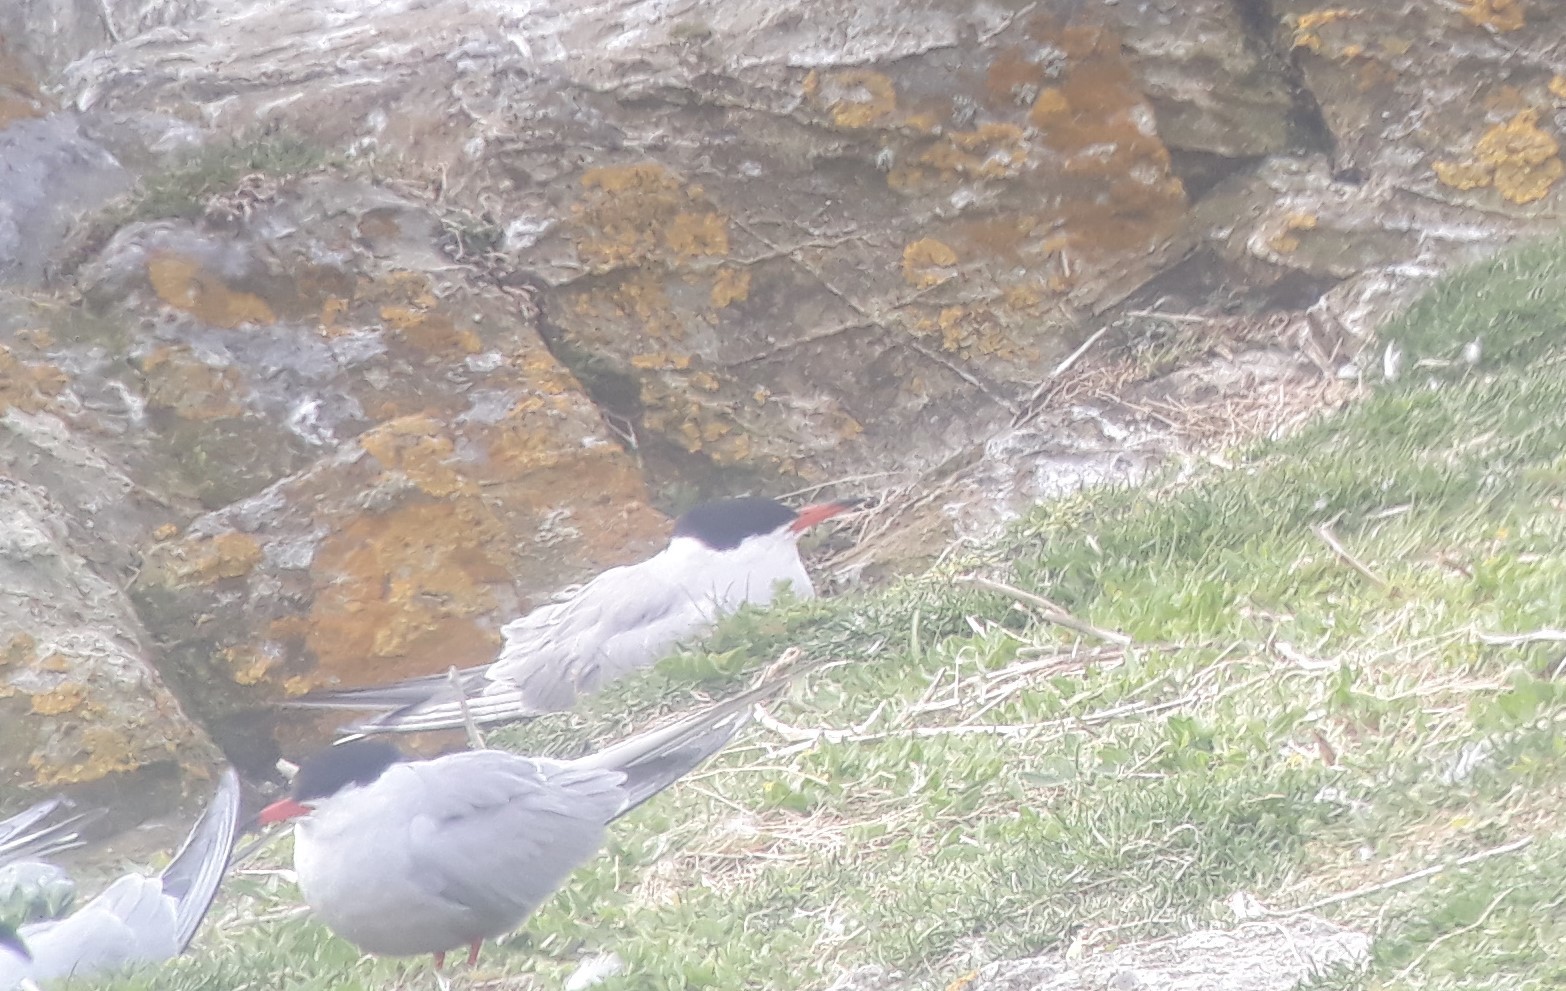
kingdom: Animalia
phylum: Chordata
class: Aves
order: Charadriiformes
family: Laridae
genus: Sterna
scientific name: Sterna hirundo
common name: Common tern
